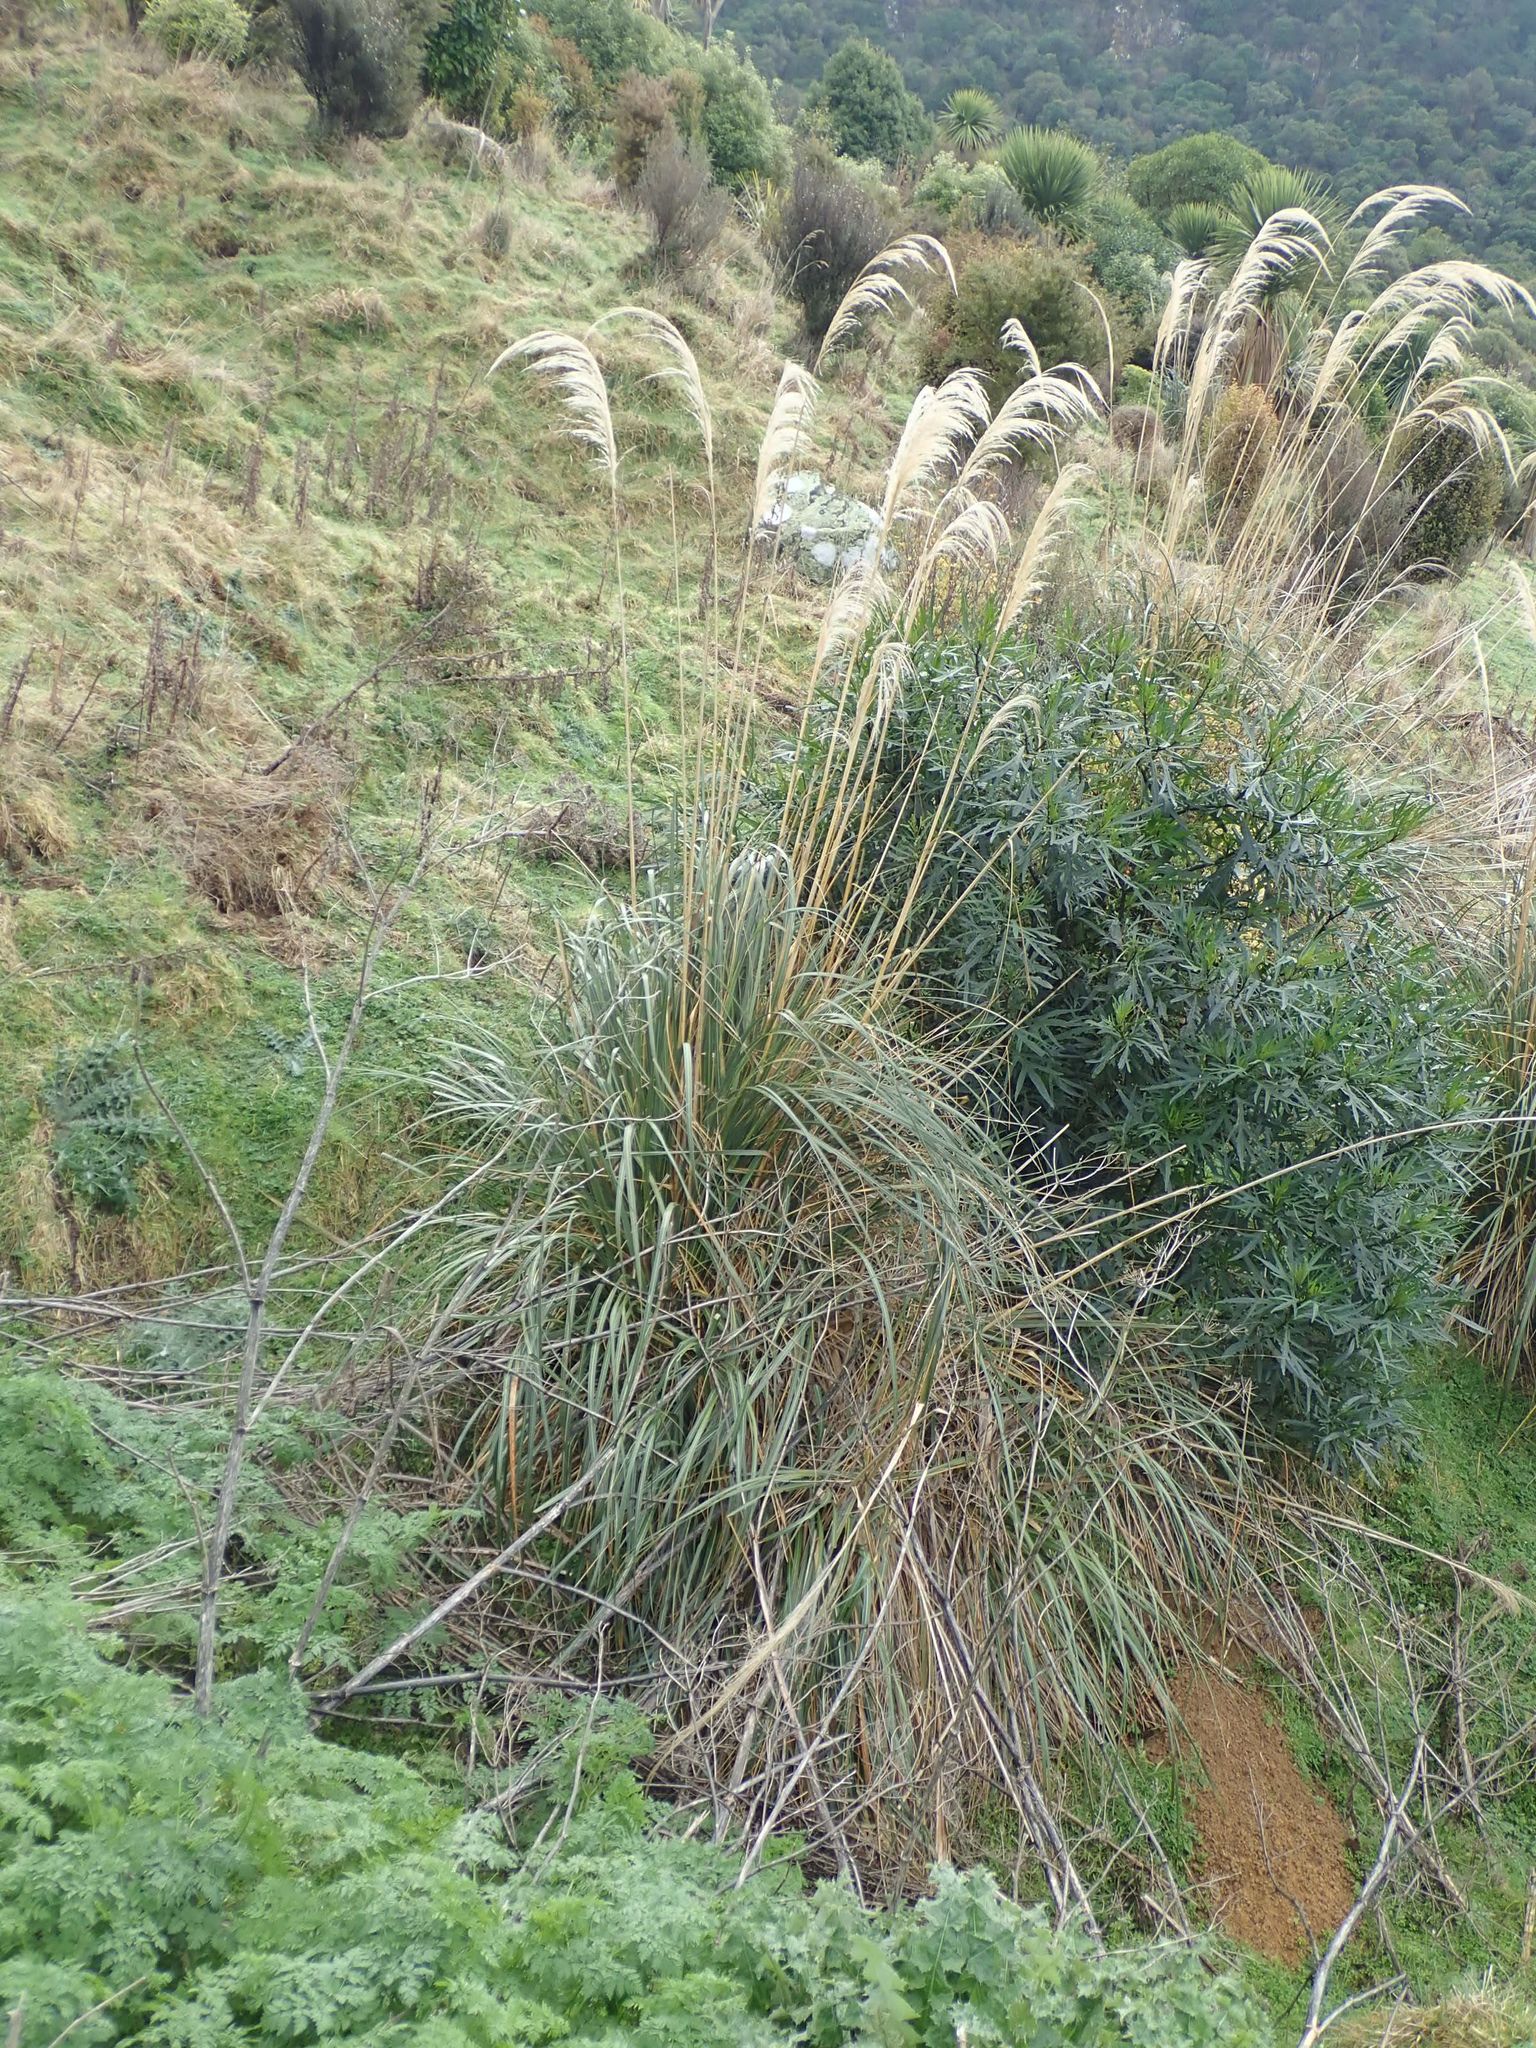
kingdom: Plantae
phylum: Tracheophyta
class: Liliopsida
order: Poales
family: Poaceae
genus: Austroderia
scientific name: Austroderia richardii
